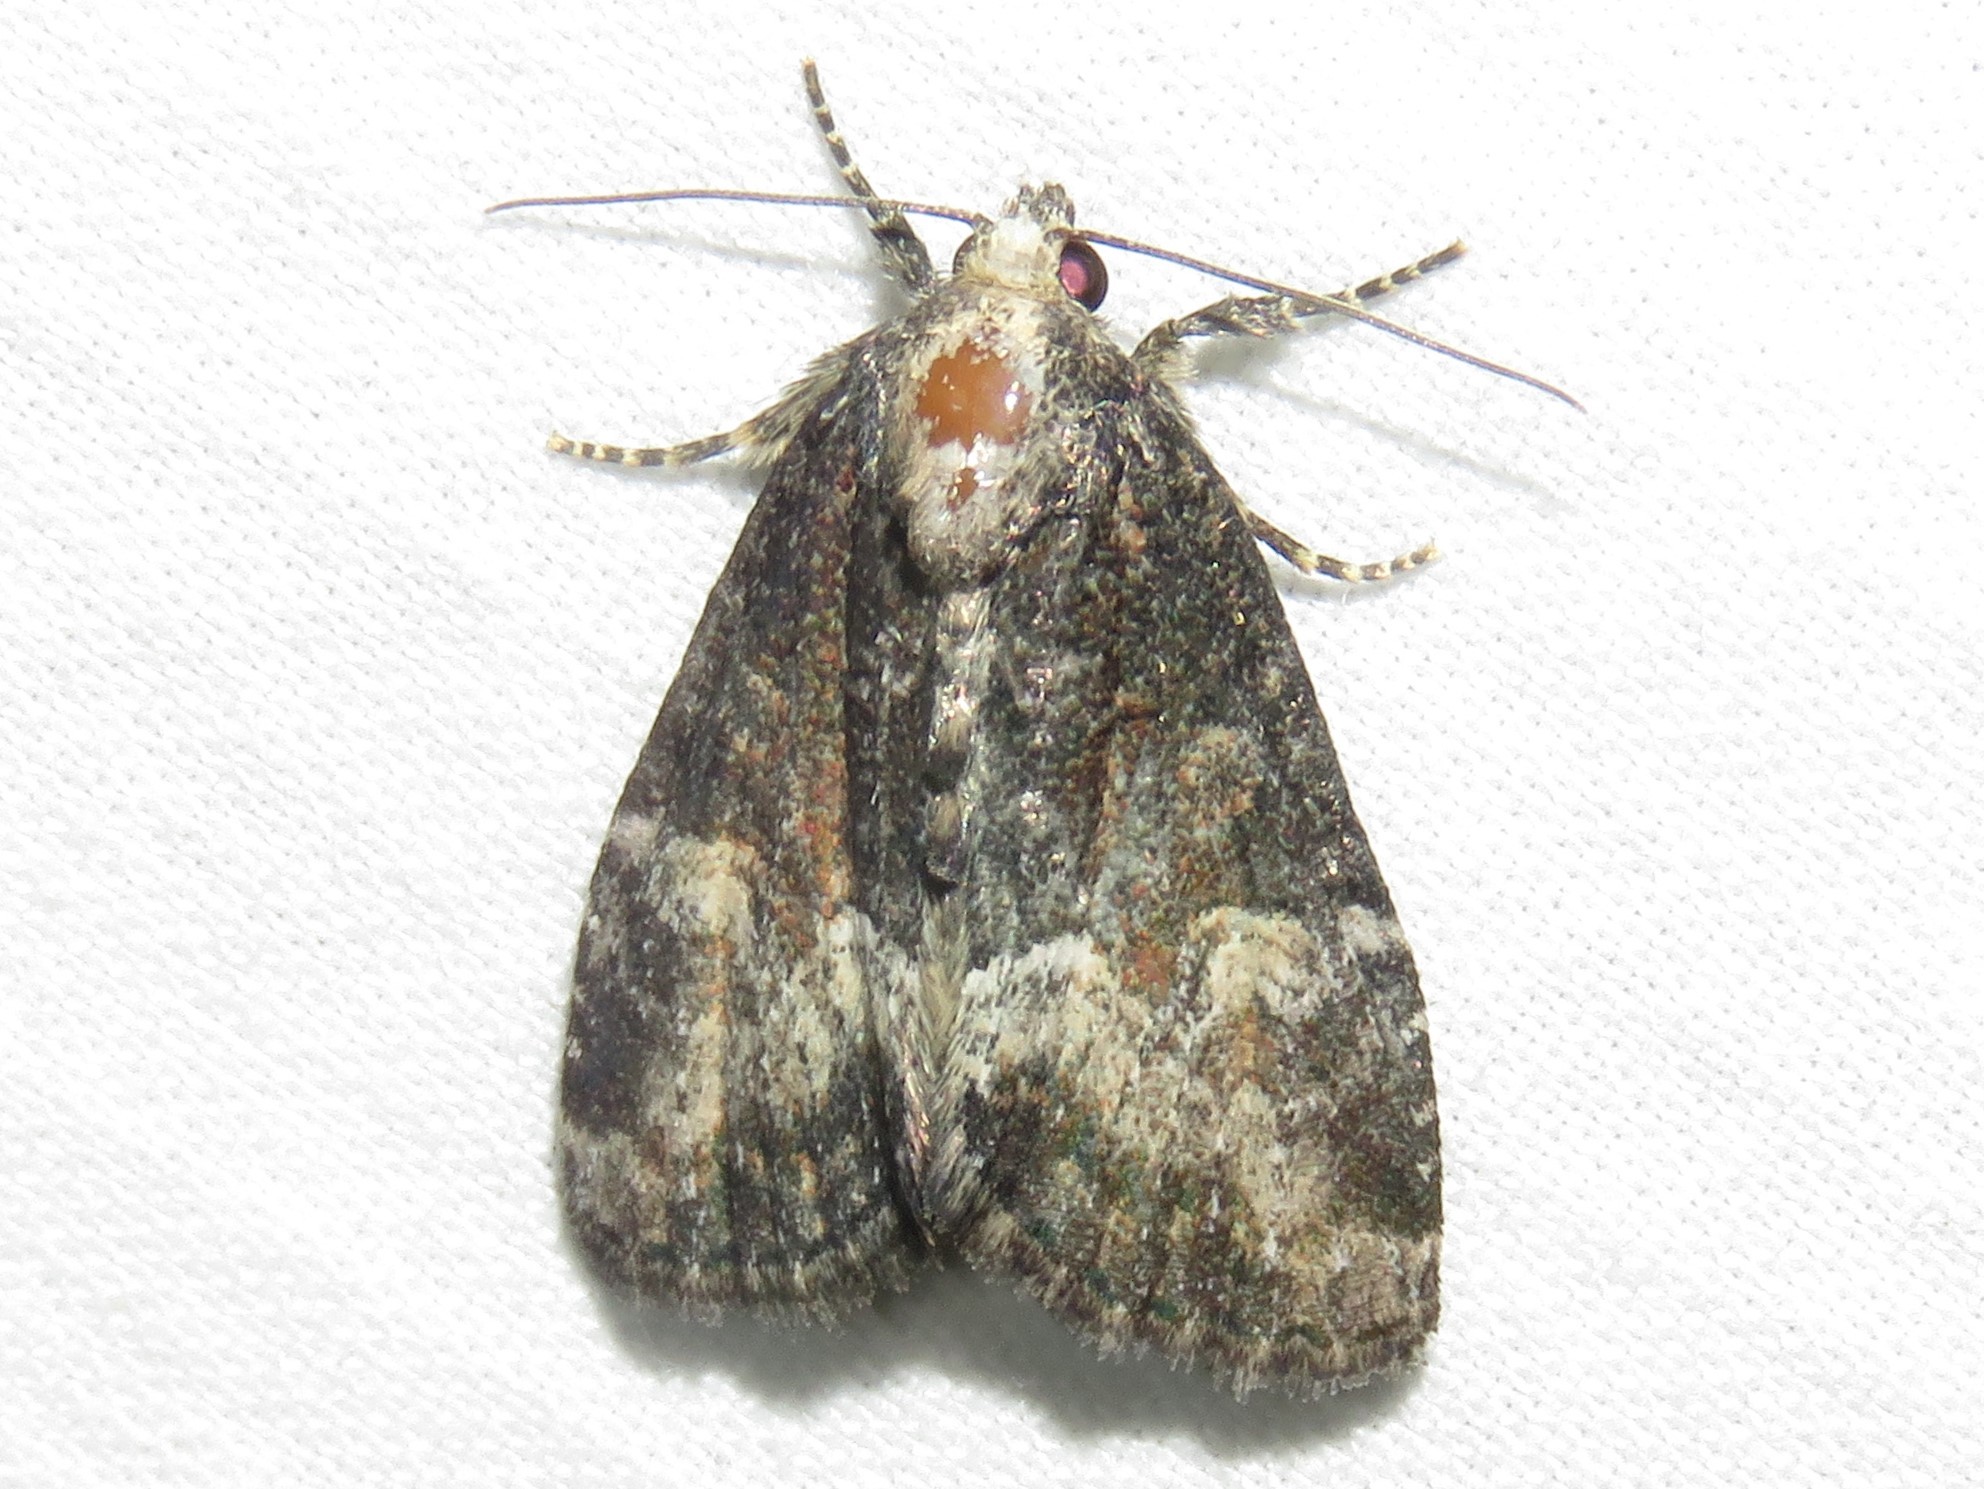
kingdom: Animalia
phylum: Arthropoda
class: Insecta
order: Lepidoptera
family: Noctuidae
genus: Neoligia
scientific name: Neoligia subjuncta
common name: Connected brocade
